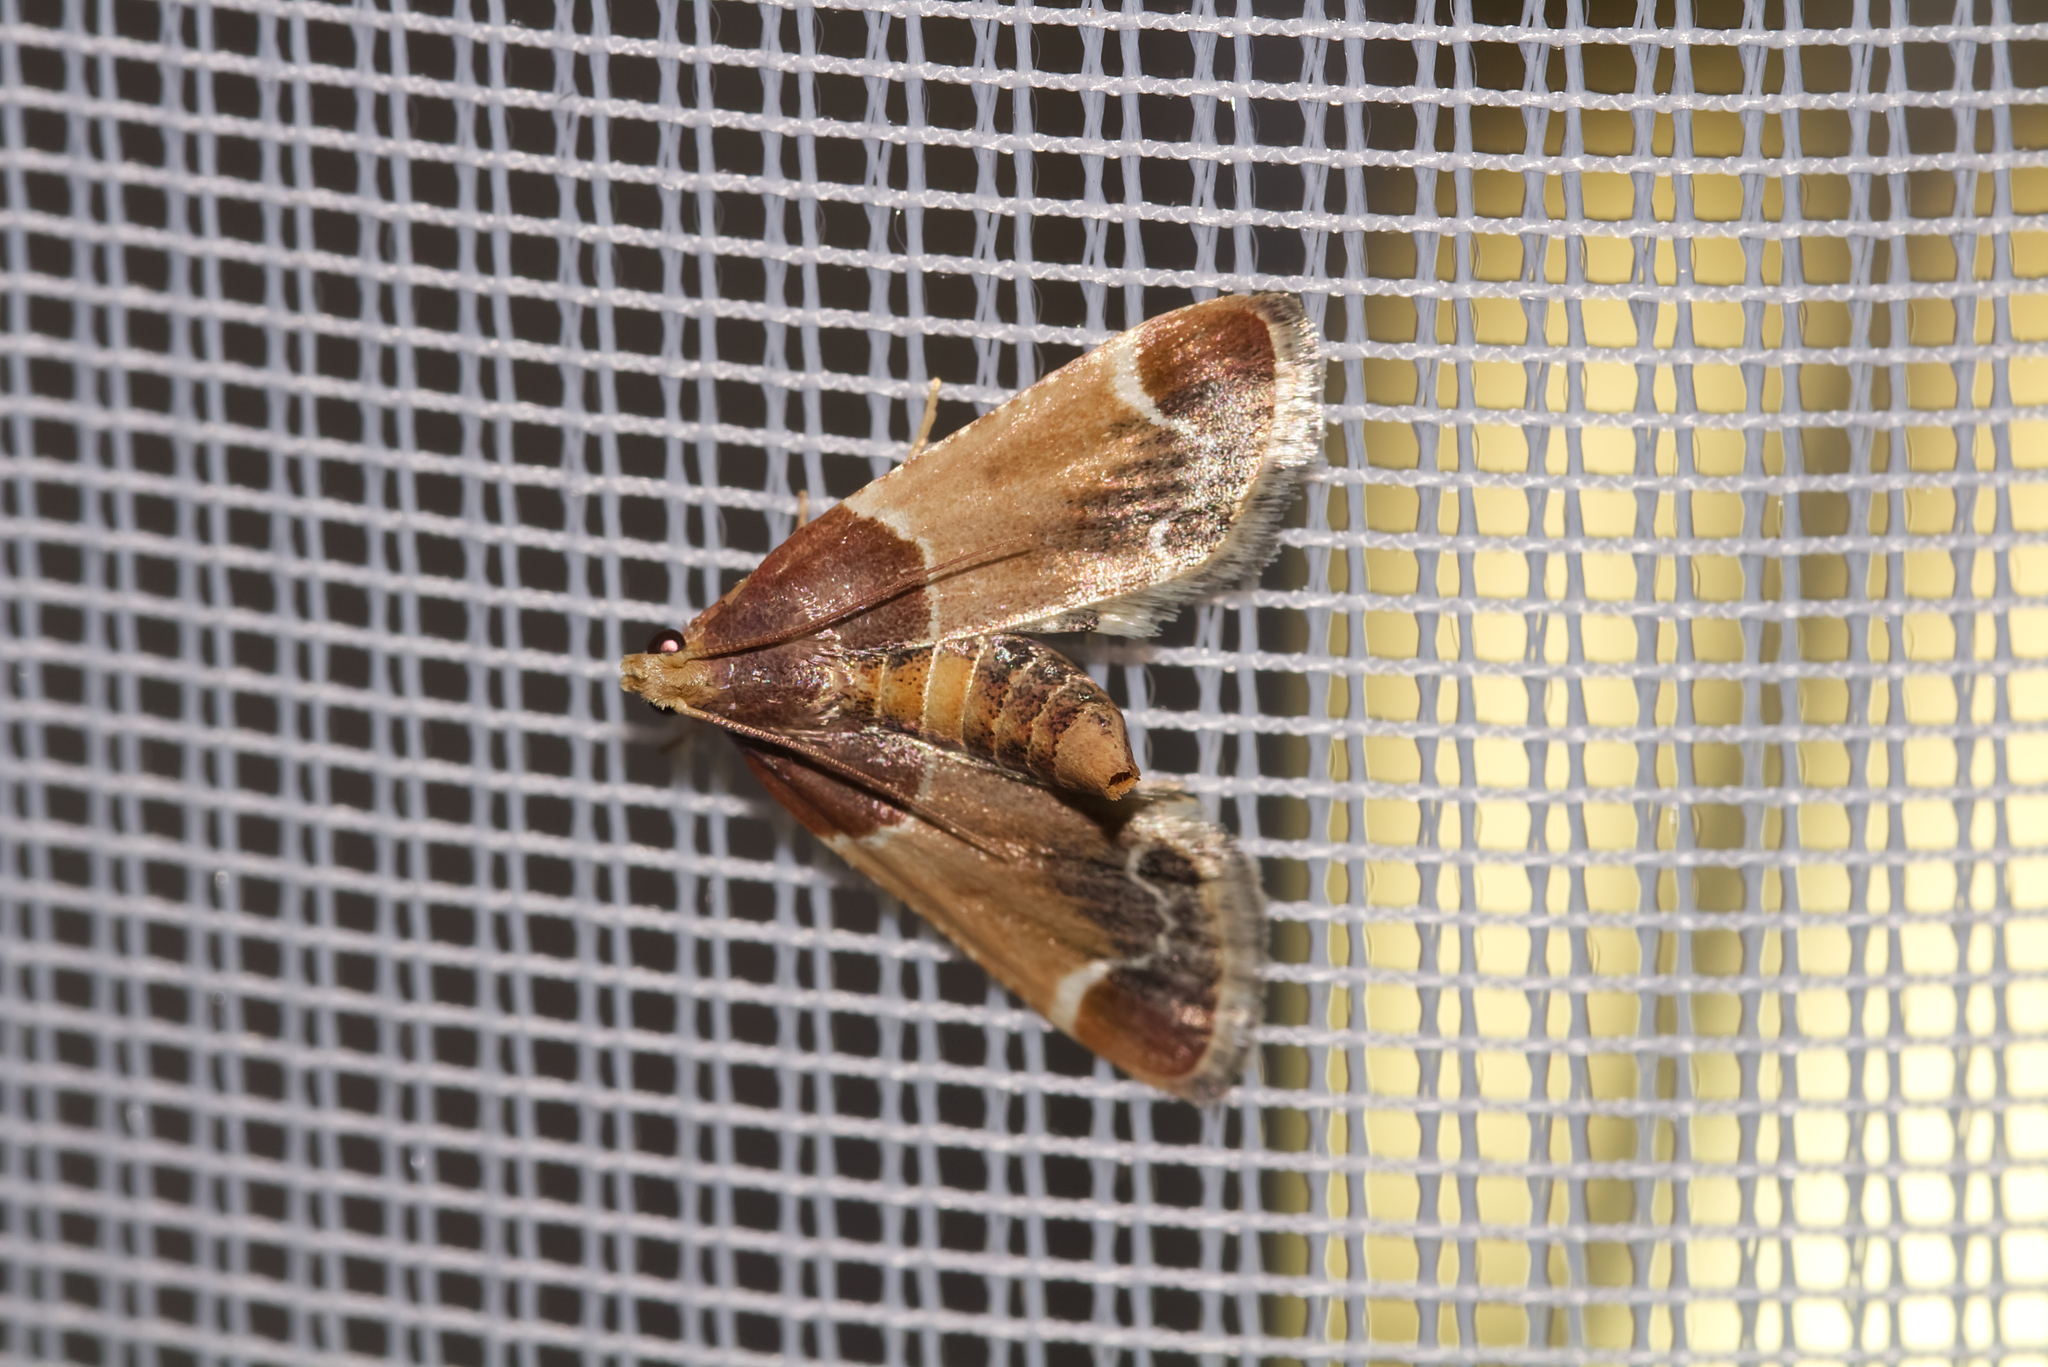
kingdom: Animalia
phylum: Arthropoda
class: Insecta
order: Lepidoptera
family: Pyralidae
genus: Pyralis
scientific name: Pyralis farinalis
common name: Meal moth
